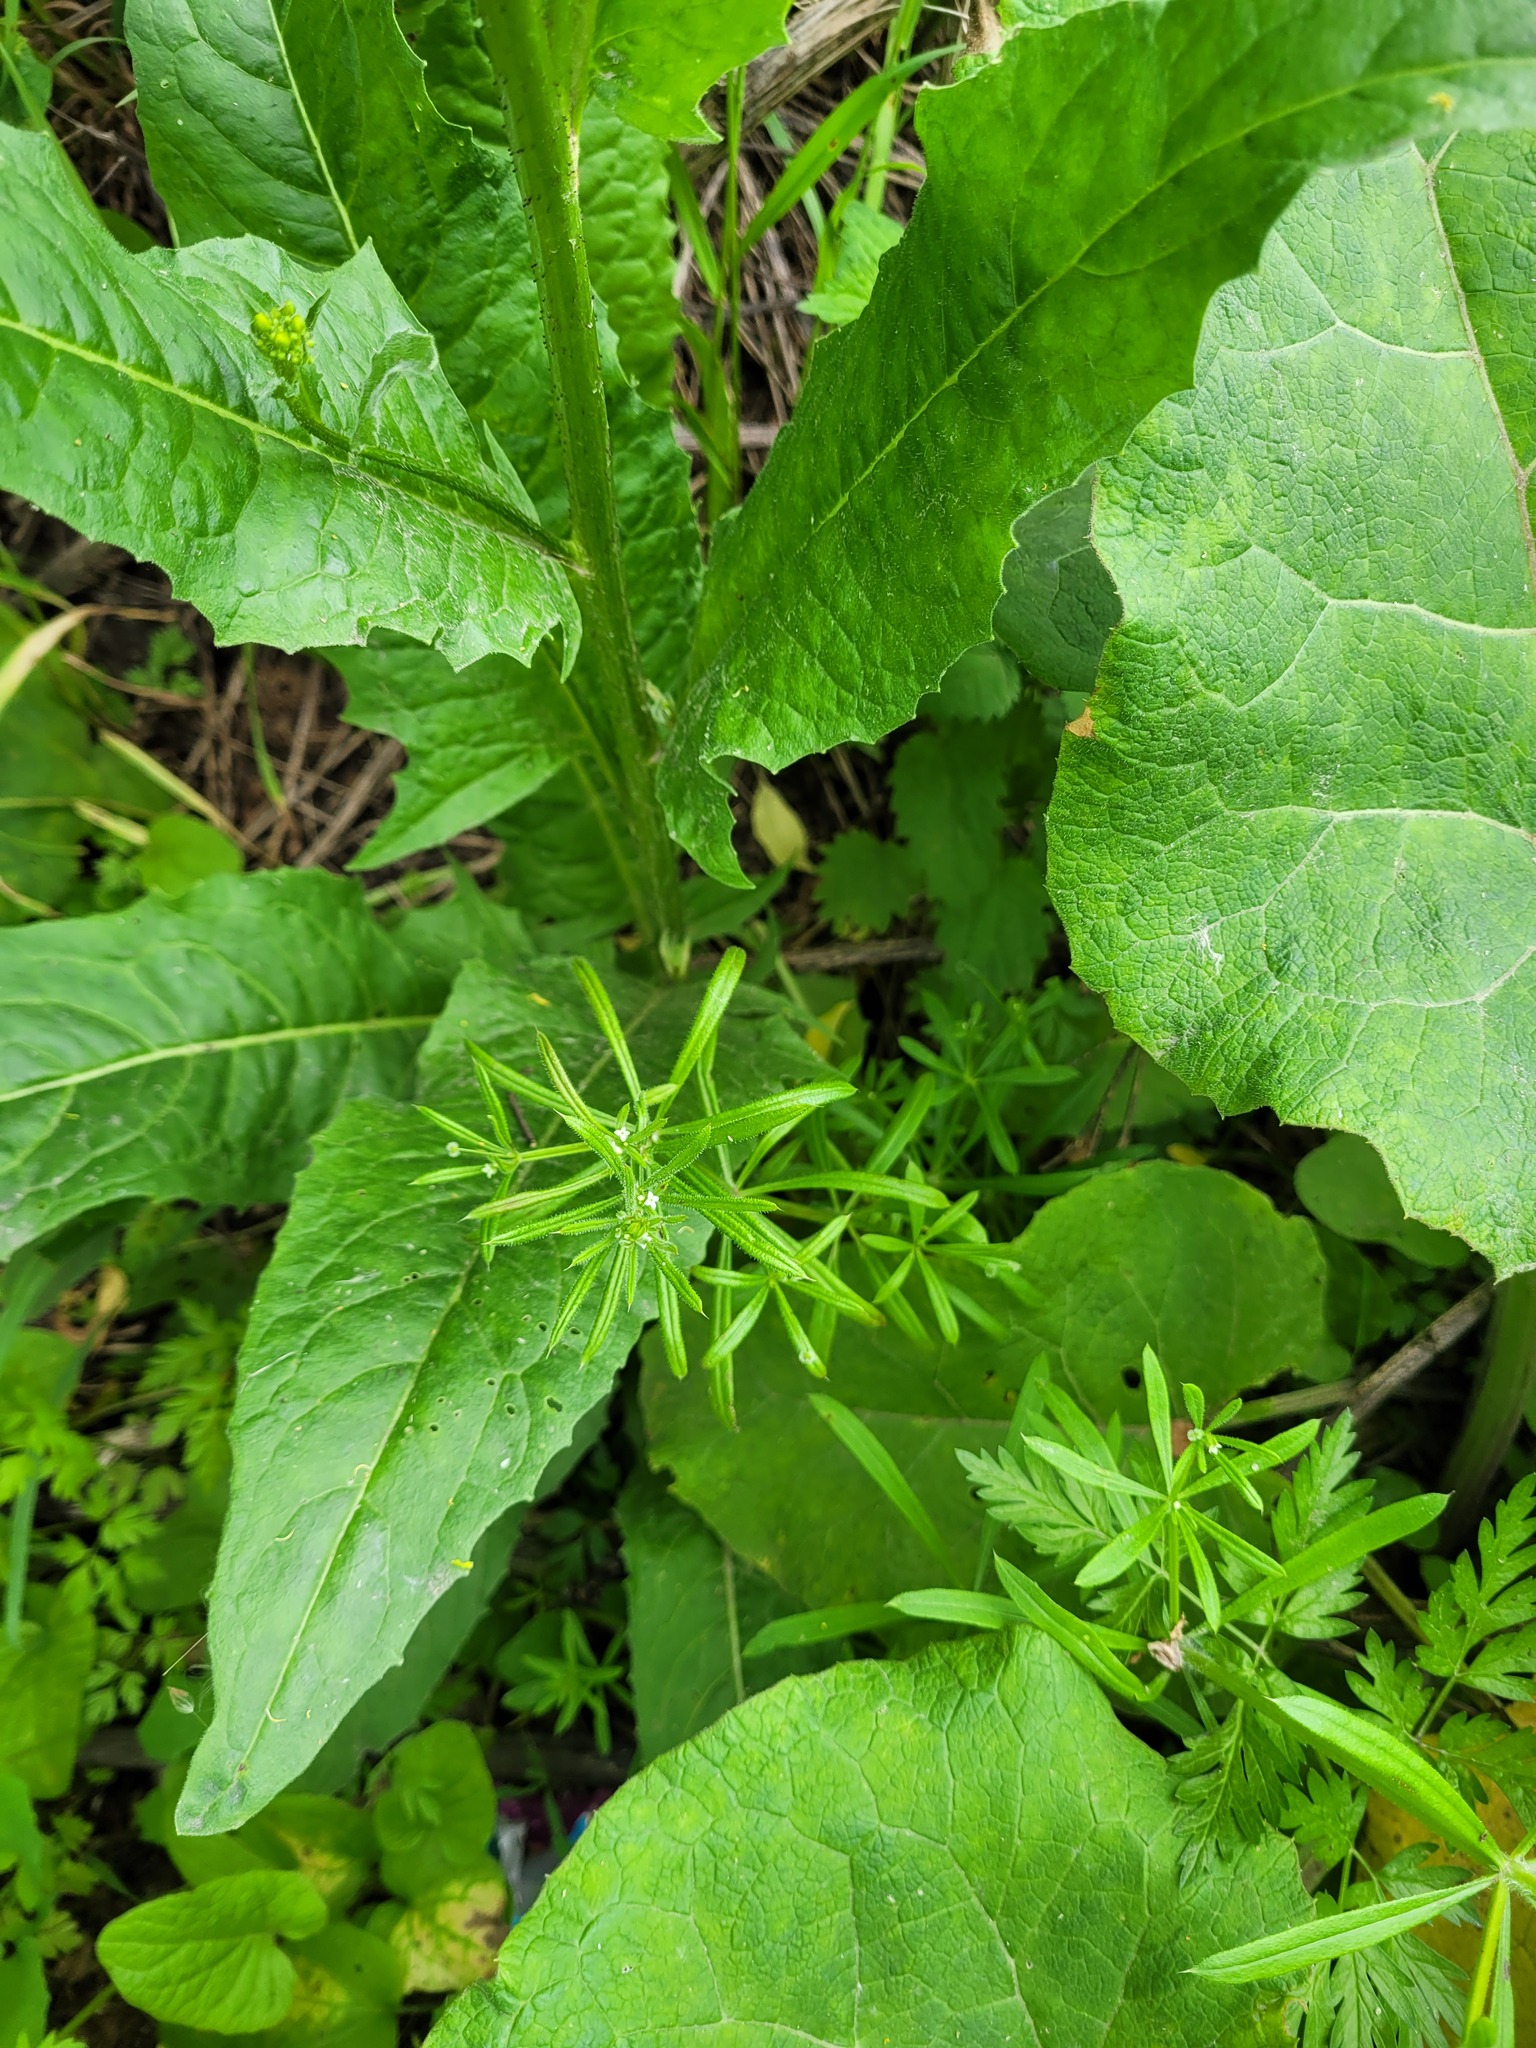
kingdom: Plantae
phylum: Tracheophyta
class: Magnoliopsida
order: Gentianales
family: Rubiaceae
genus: Galium
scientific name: Galium aparine
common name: Cleavers
